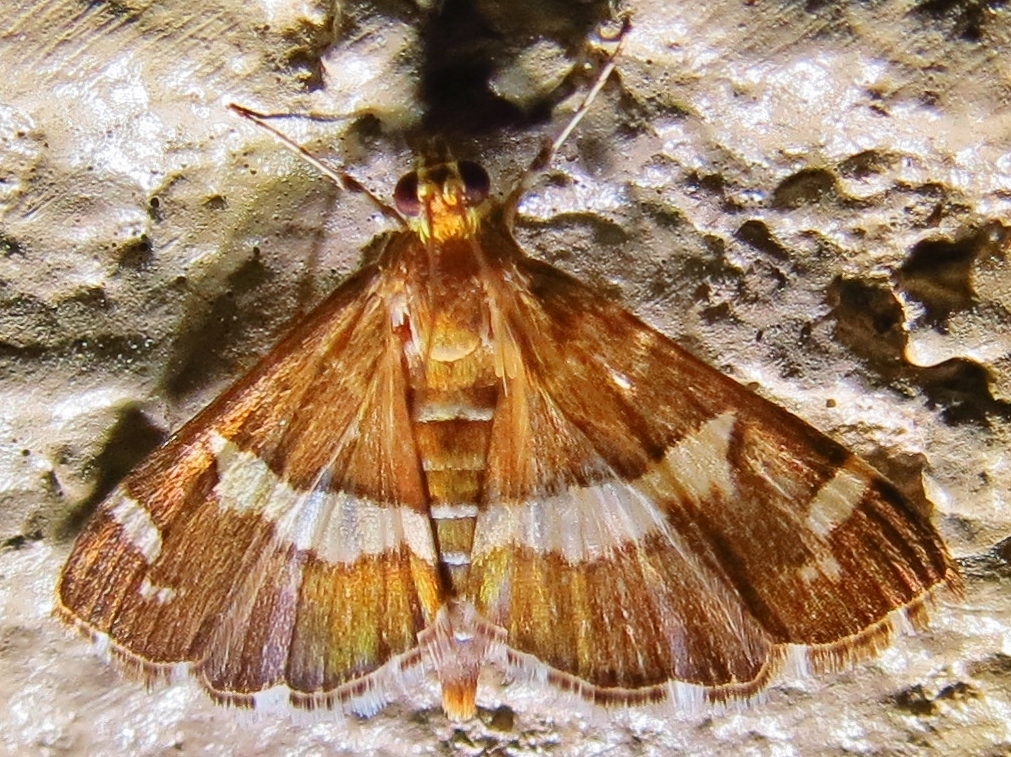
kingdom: Animalia
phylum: Arthropoda
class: Insecta
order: Lepidoptera
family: Crambidae
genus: Spoladea
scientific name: Spoladea recurvalis
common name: Beet webworm moth
